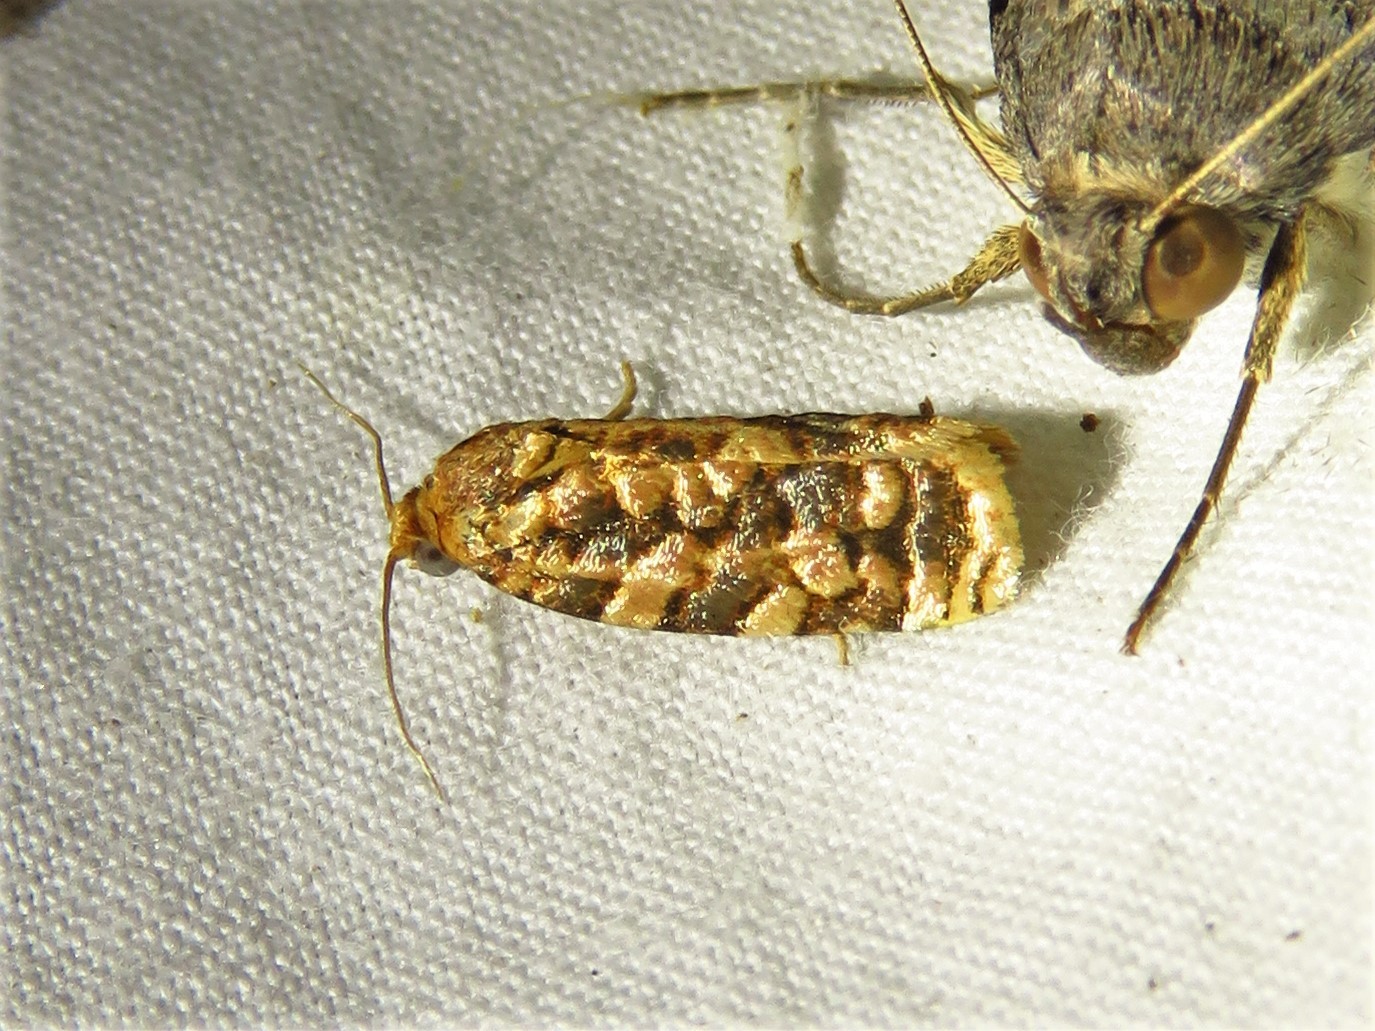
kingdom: Animalia
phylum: Arthropoda
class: Insecta
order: Lepidoptera
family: Tortricidae
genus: Choristoneura
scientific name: Choristoneura houstonana
